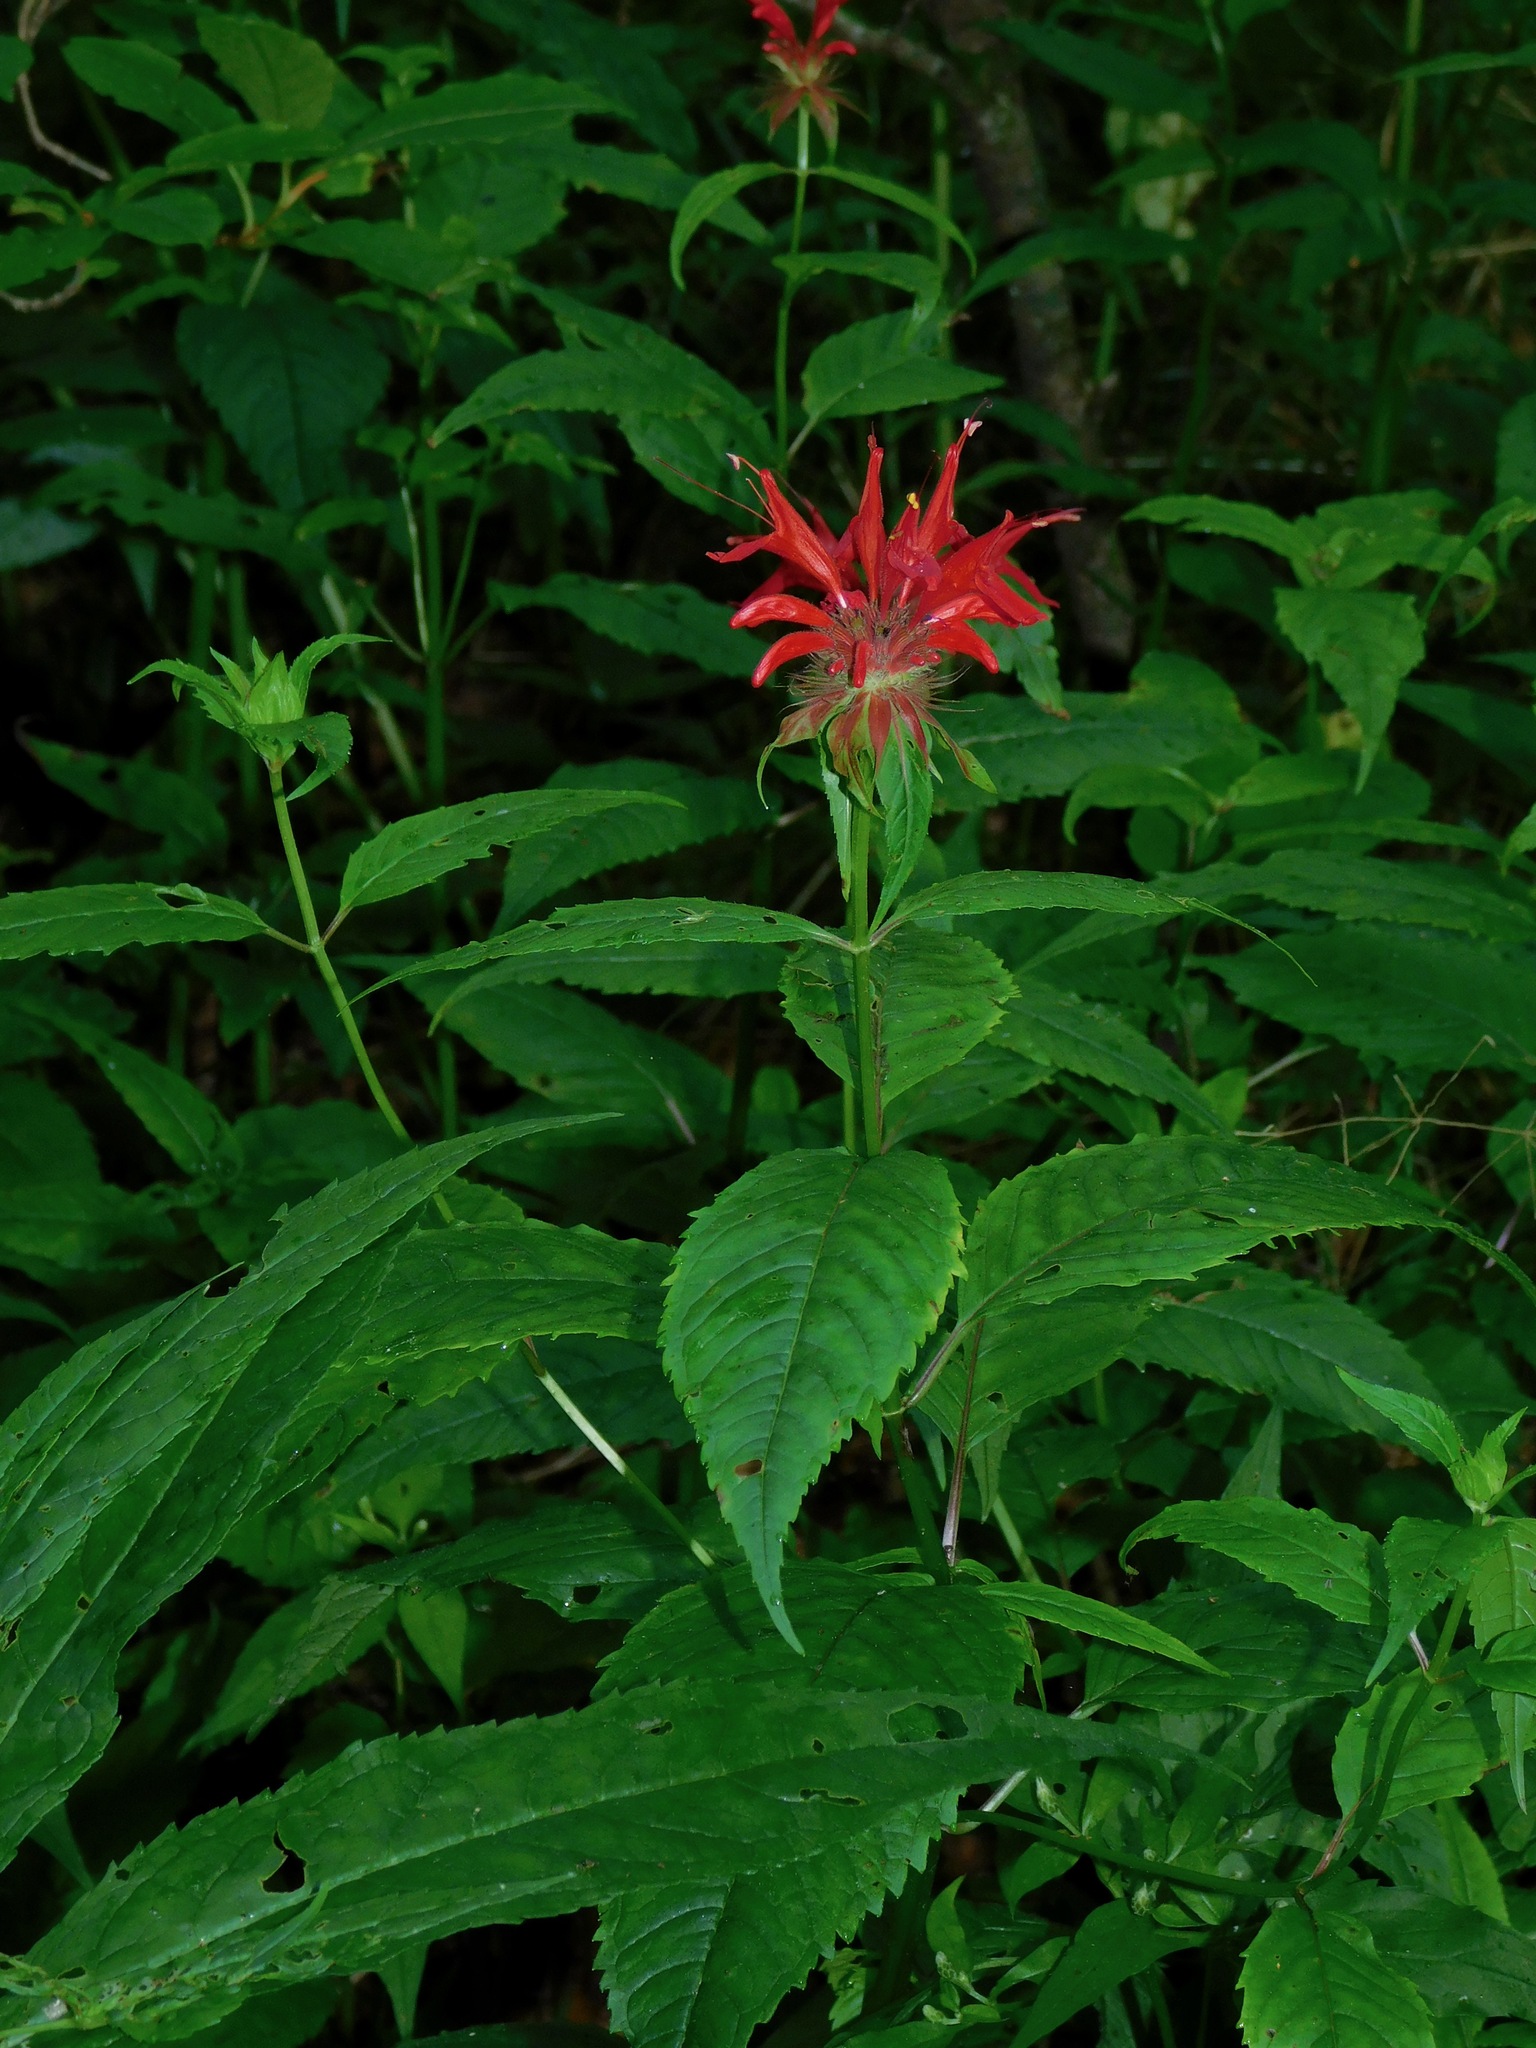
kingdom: Plantae
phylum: Tracheophyta
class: Magnoliopsida
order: Lamiales
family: Lamiaceae
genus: Monarda
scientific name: Monarda didyma
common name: Beebalm
